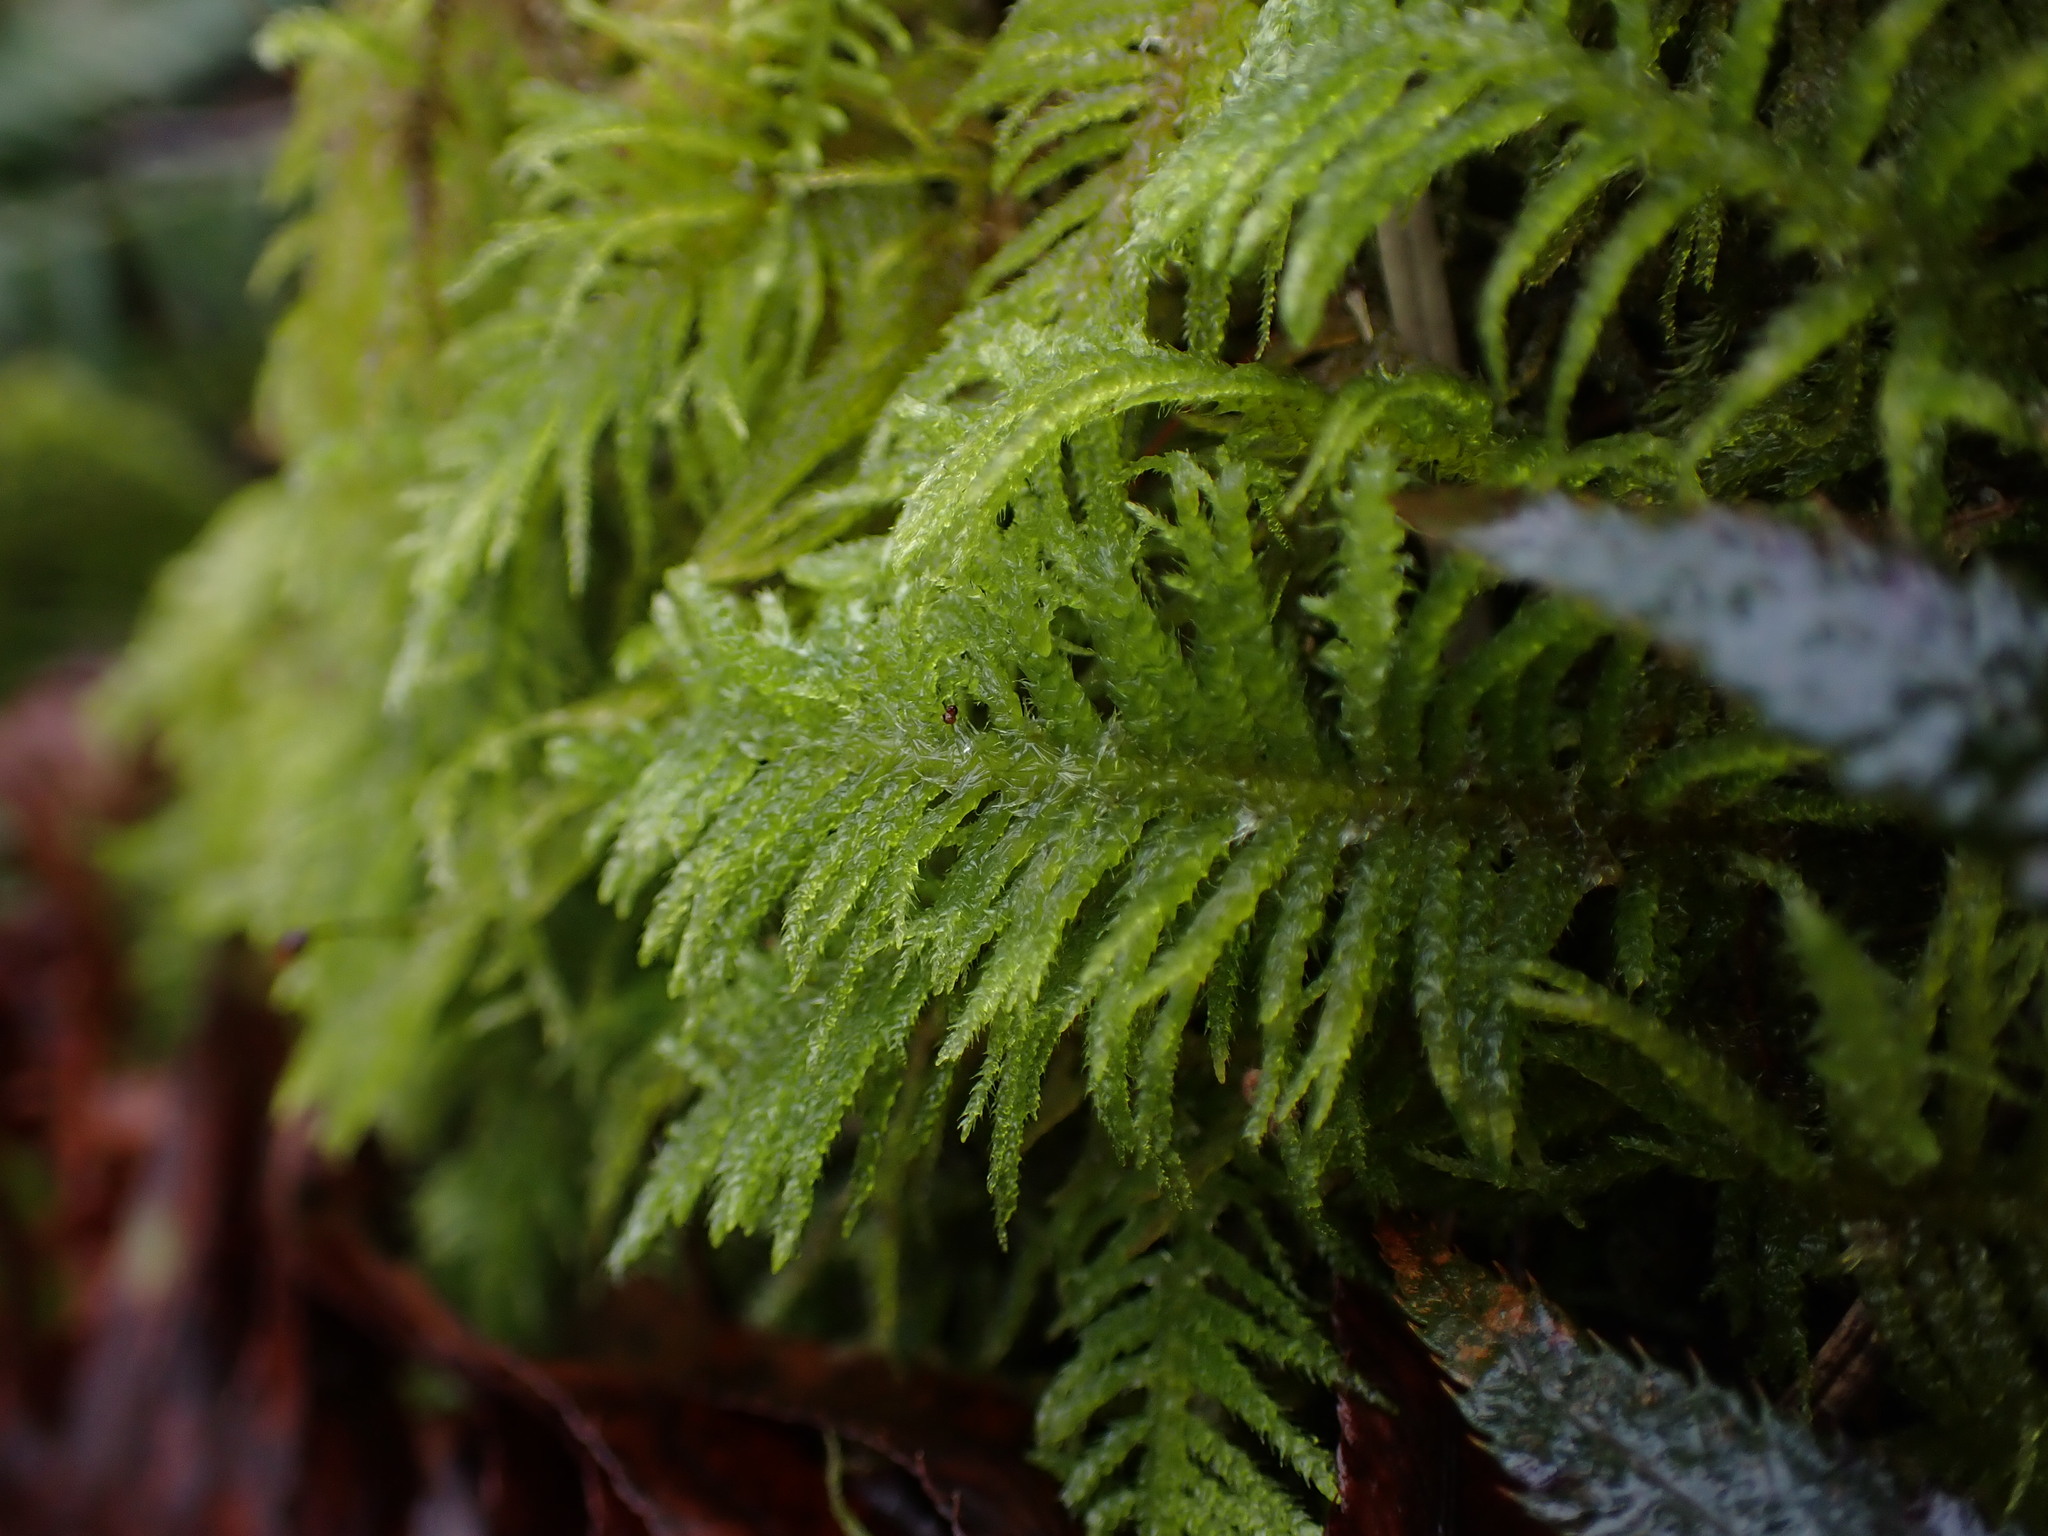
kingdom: Plantae
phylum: Bryophyta
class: Bryopsida
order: Hypnales
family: Brachytheciaceae
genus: Kindbergia
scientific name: Kindbergia oregana
